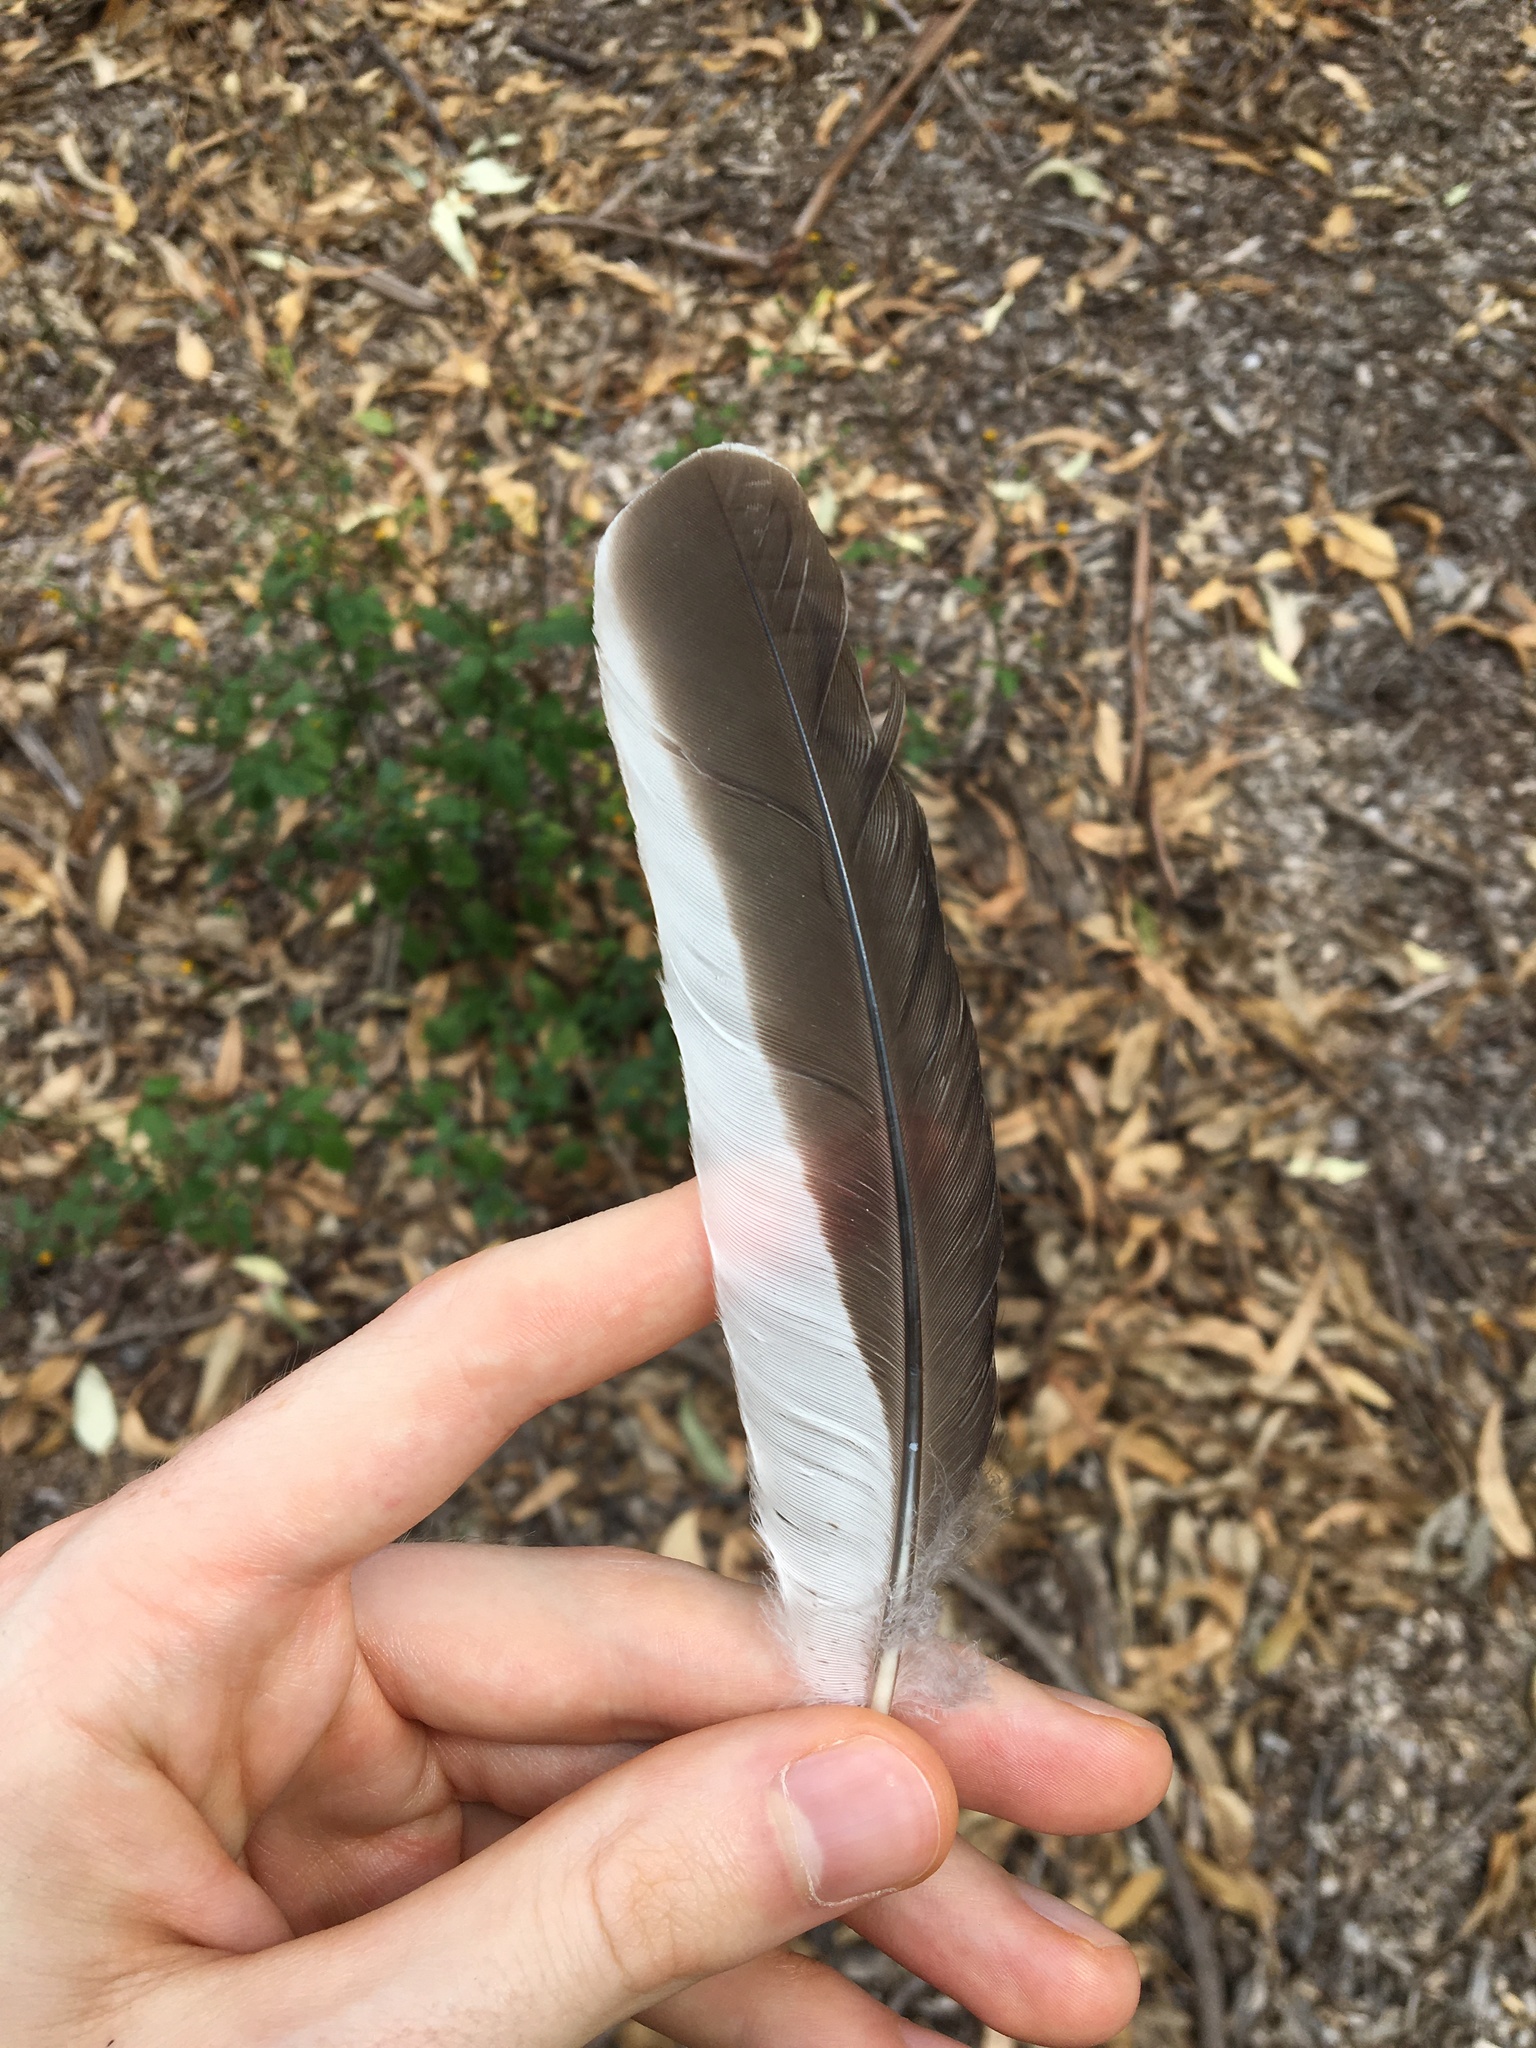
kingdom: Animalia
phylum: Chordata
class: Aves
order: Coraciiformes
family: Alcedinidae
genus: Dacelo
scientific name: Dacelo novaeguineae
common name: Laughing kookaburra
